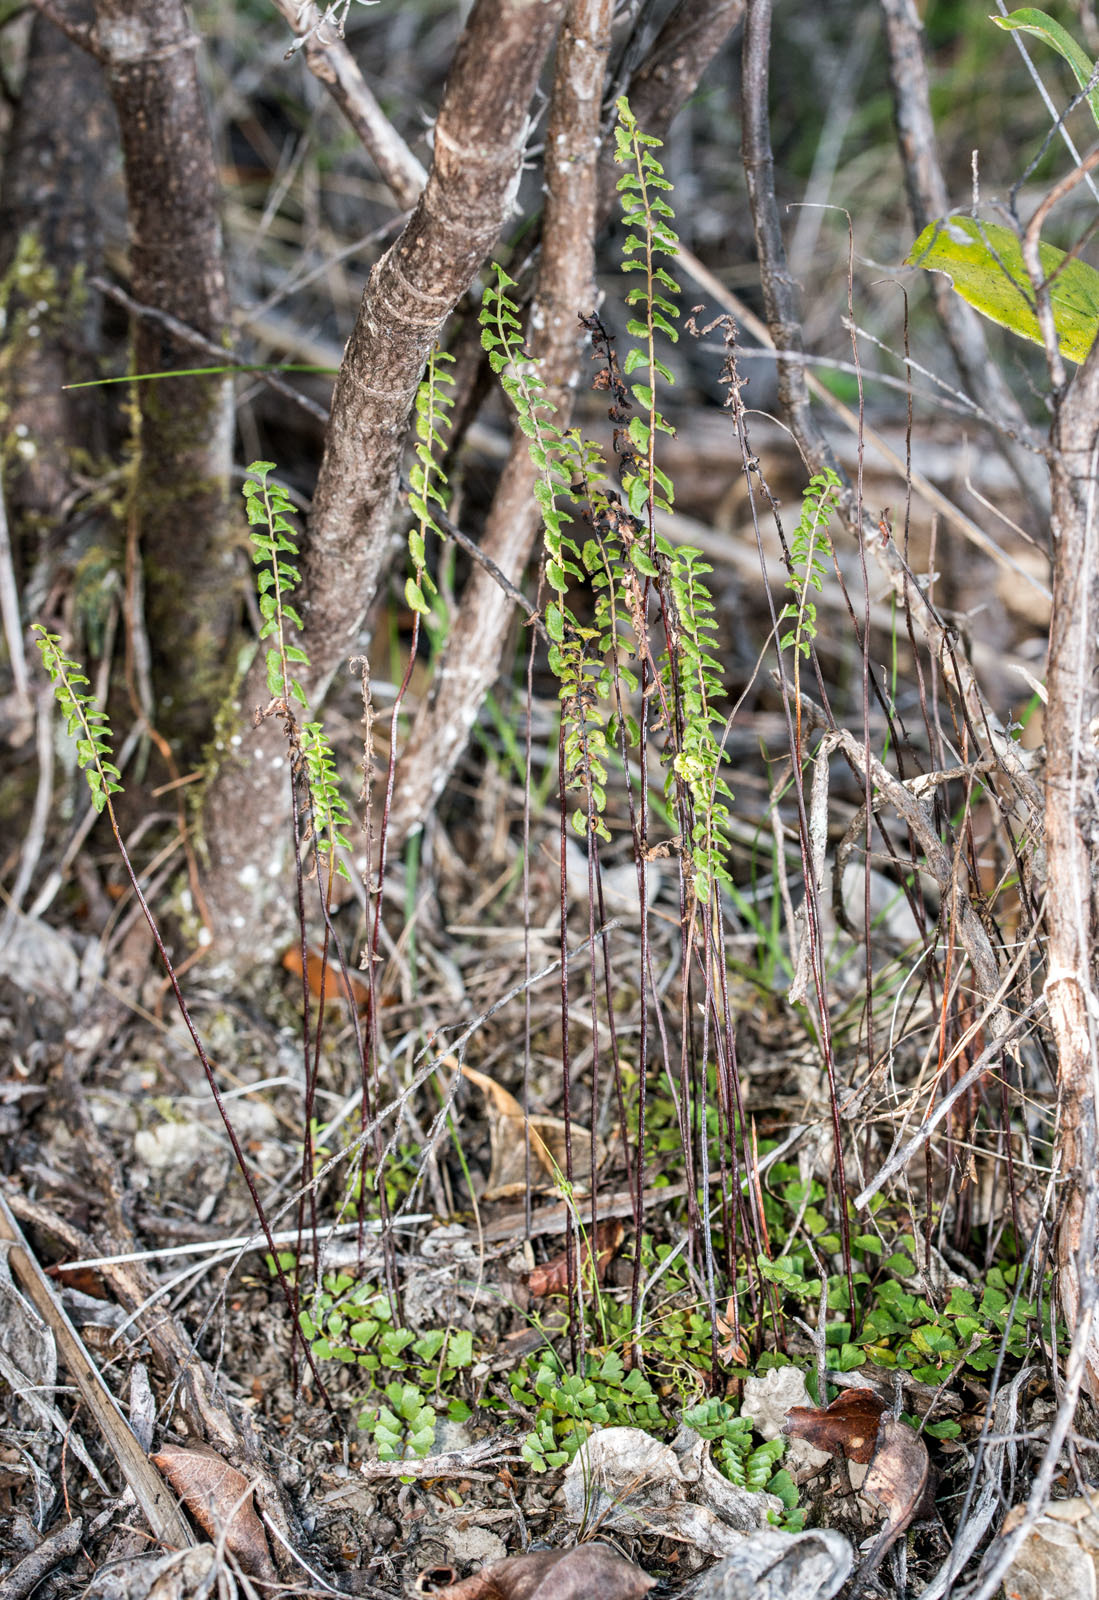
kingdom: Plantae
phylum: Tracheophyta
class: Polypodiopsida
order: Polypodiales
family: Lindsaeaceae
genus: Lindsaea
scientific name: Lindsaea linearis
